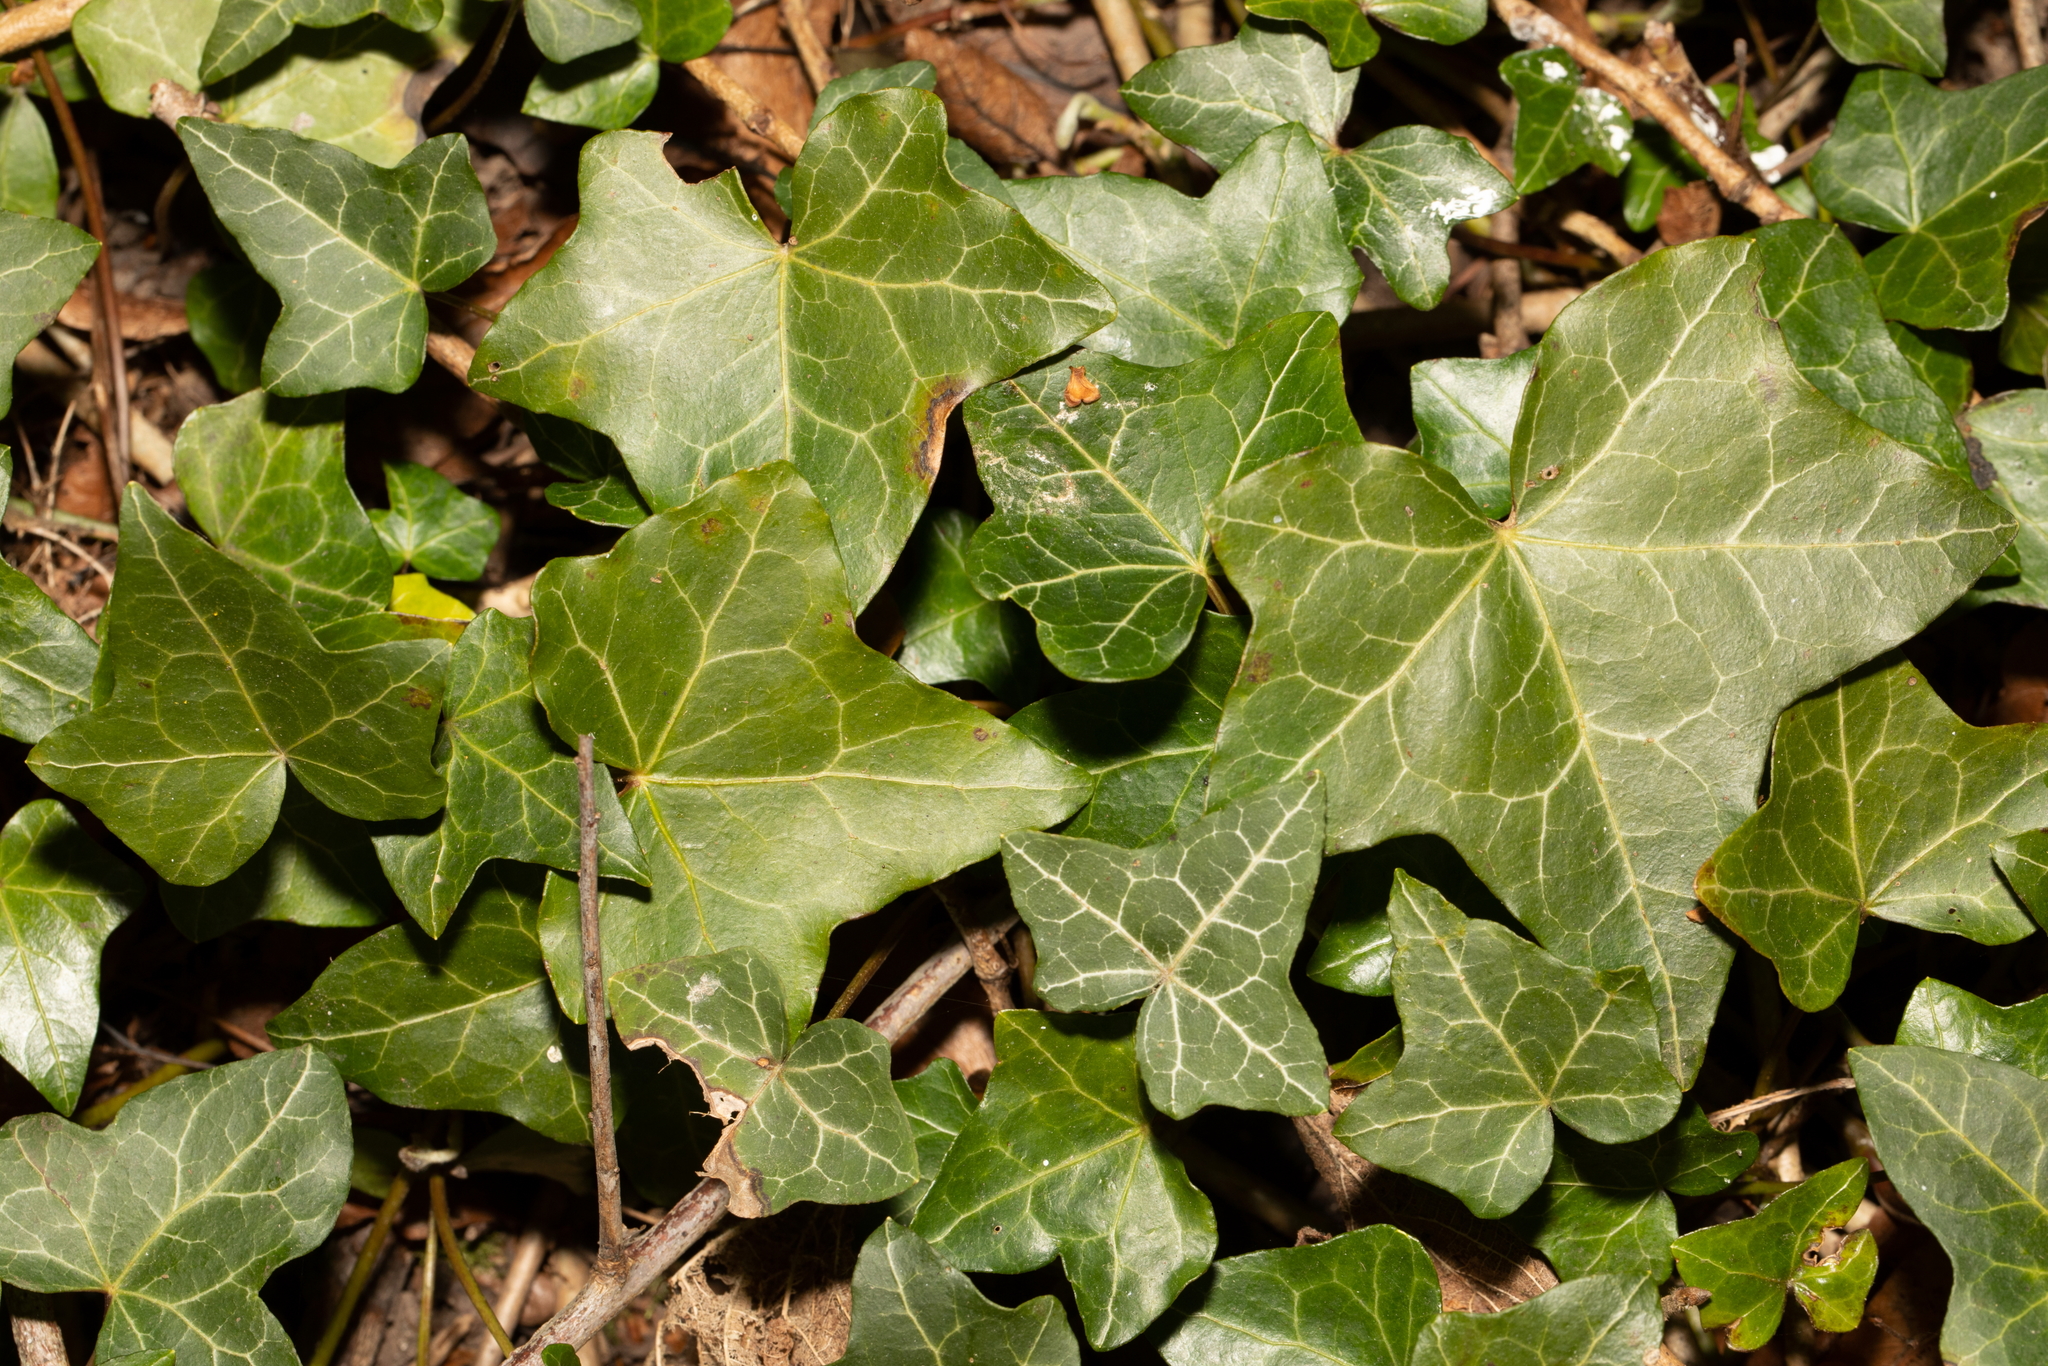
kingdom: Plantae
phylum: Tracheophyta
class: Magnoliopsida
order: Apiales
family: Araliaceae
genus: Hedera
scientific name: Hedera helix
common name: Ivy
